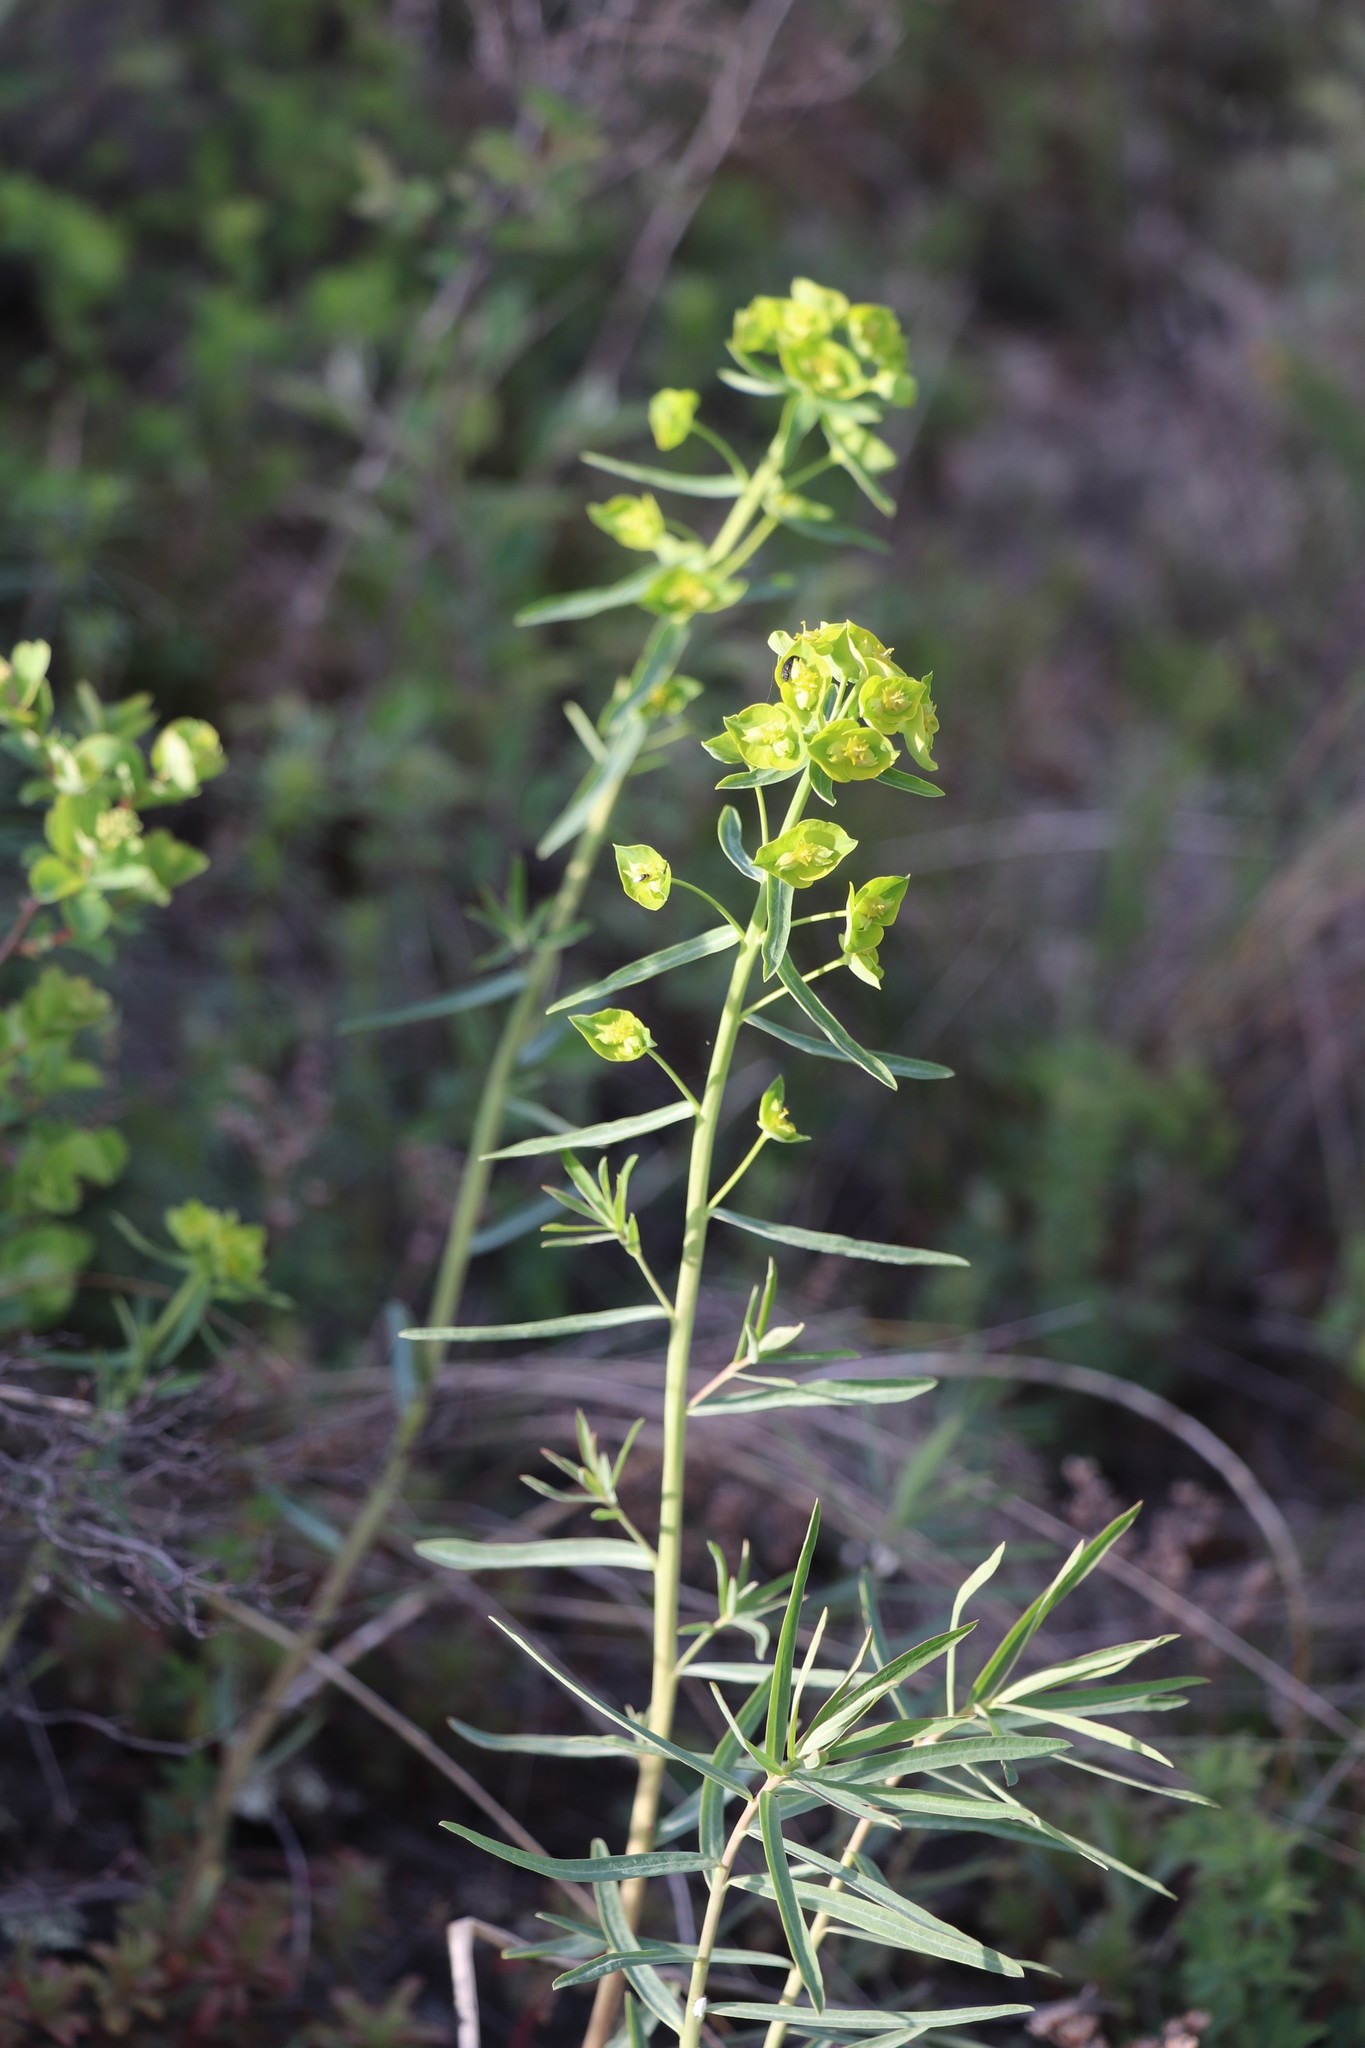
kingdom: Plantae
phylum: Tracheophyta
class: Magnoliopsida
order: Malpighiales
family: Euphorbiaceae
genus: Euphorbia
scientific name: Euphorbia virgata
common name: Leafy spurge
